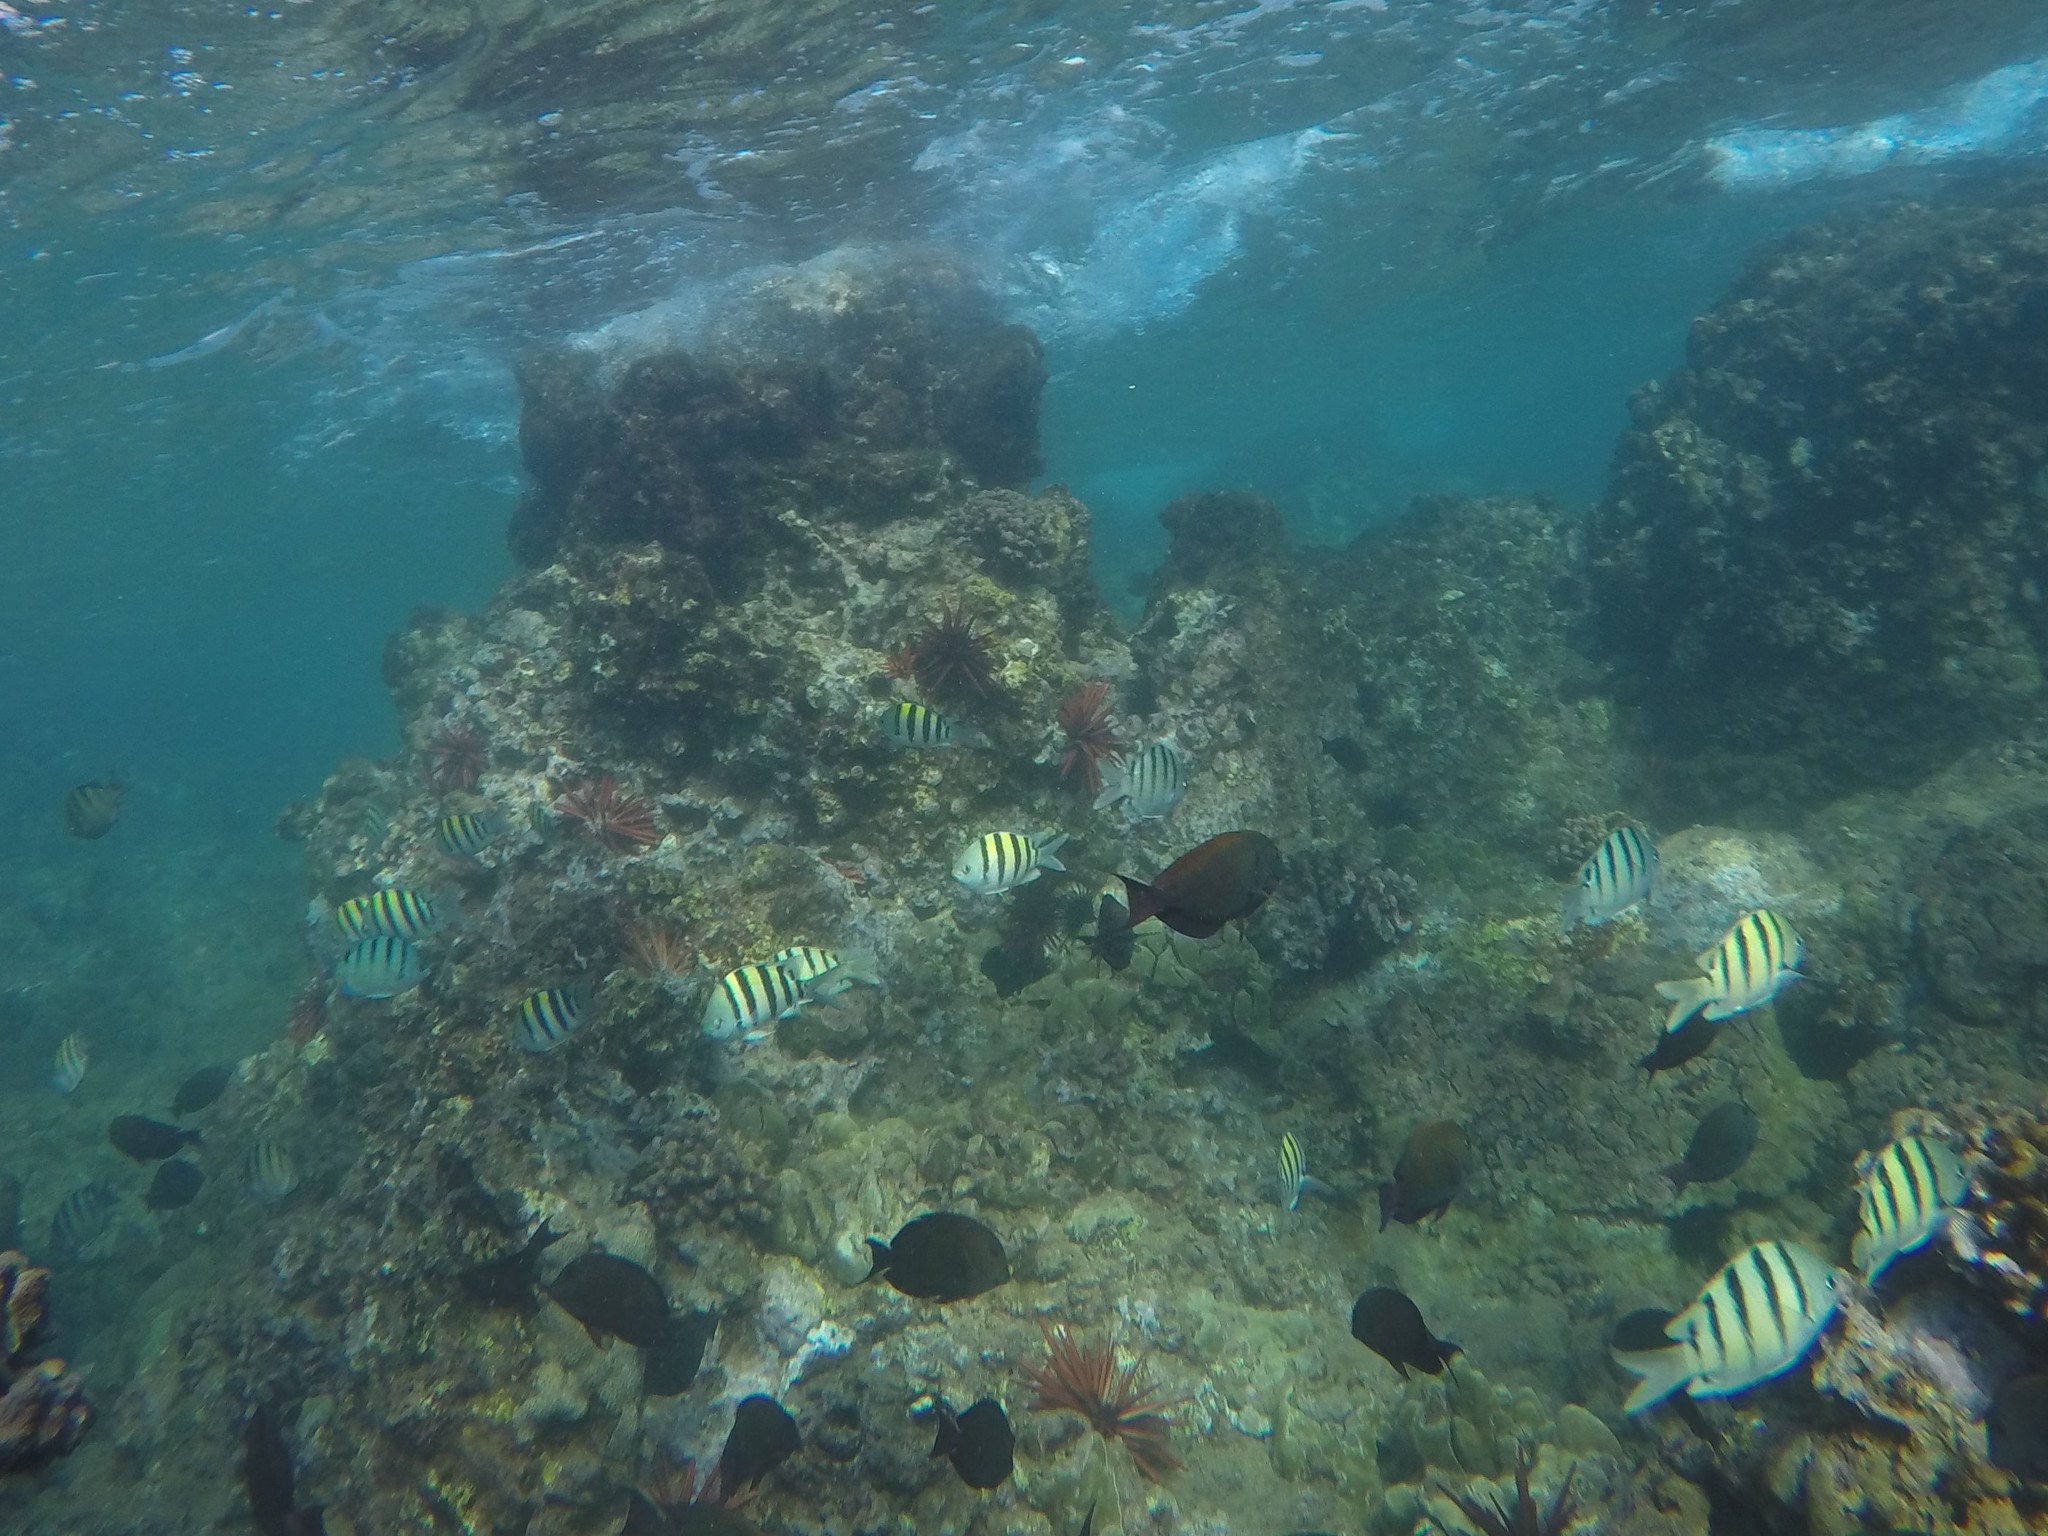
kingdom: Animalia
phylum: Chordata
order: Perciformes
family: Pomacentridae
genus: Abudefduf
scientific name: Abudefduf abdominalis
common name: Green damselfish
